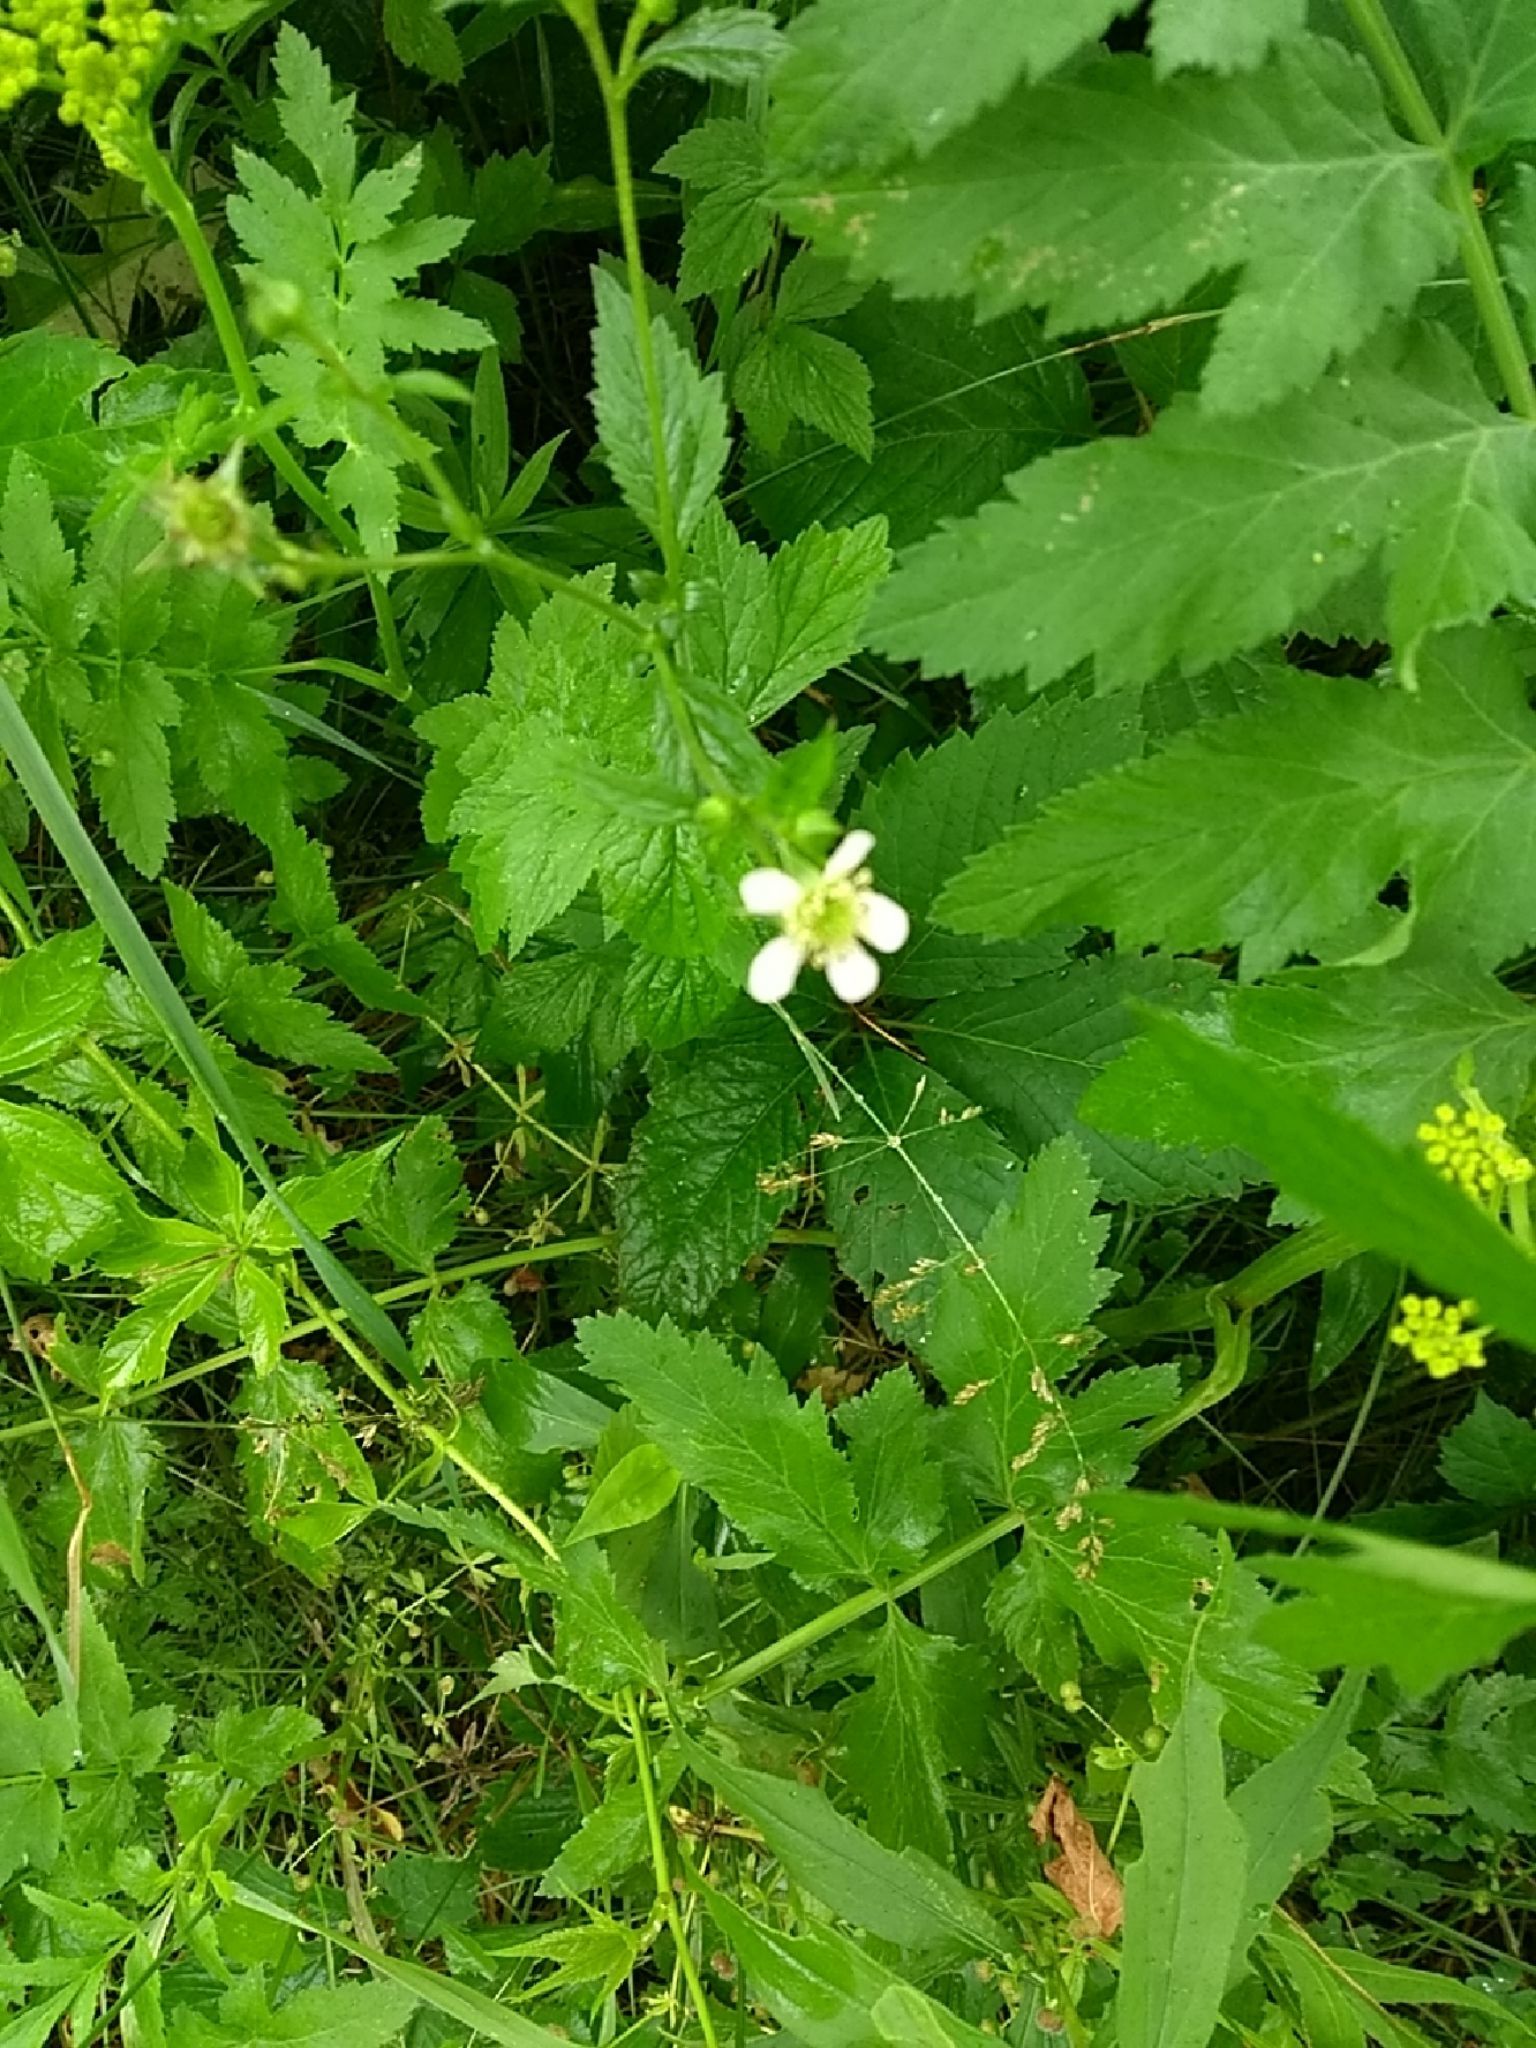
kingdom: Plantae
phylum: Tracheophyta
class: Magnoliopsida
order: Rosales
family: Rosaceae
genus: Geum
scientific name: Geum canadense
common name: White avens
